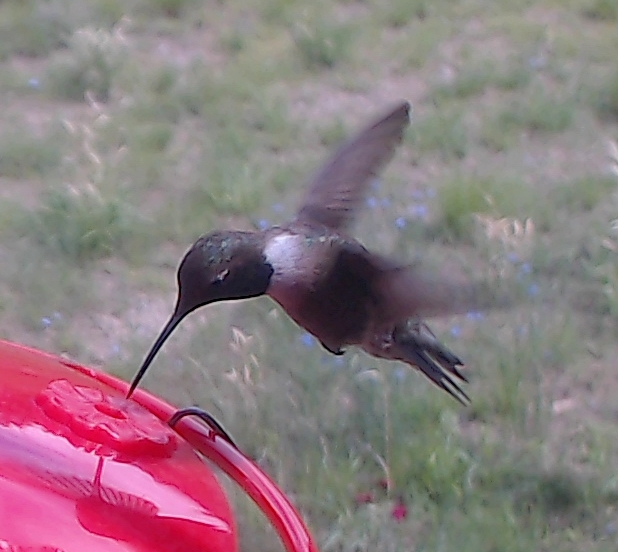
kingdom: Animalia
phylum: Chordata
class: Aves
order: Apodiformes
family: Trochilidae
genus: Archilochus
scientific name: Archilochus alexandri
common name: Black-chinned hummingbird
